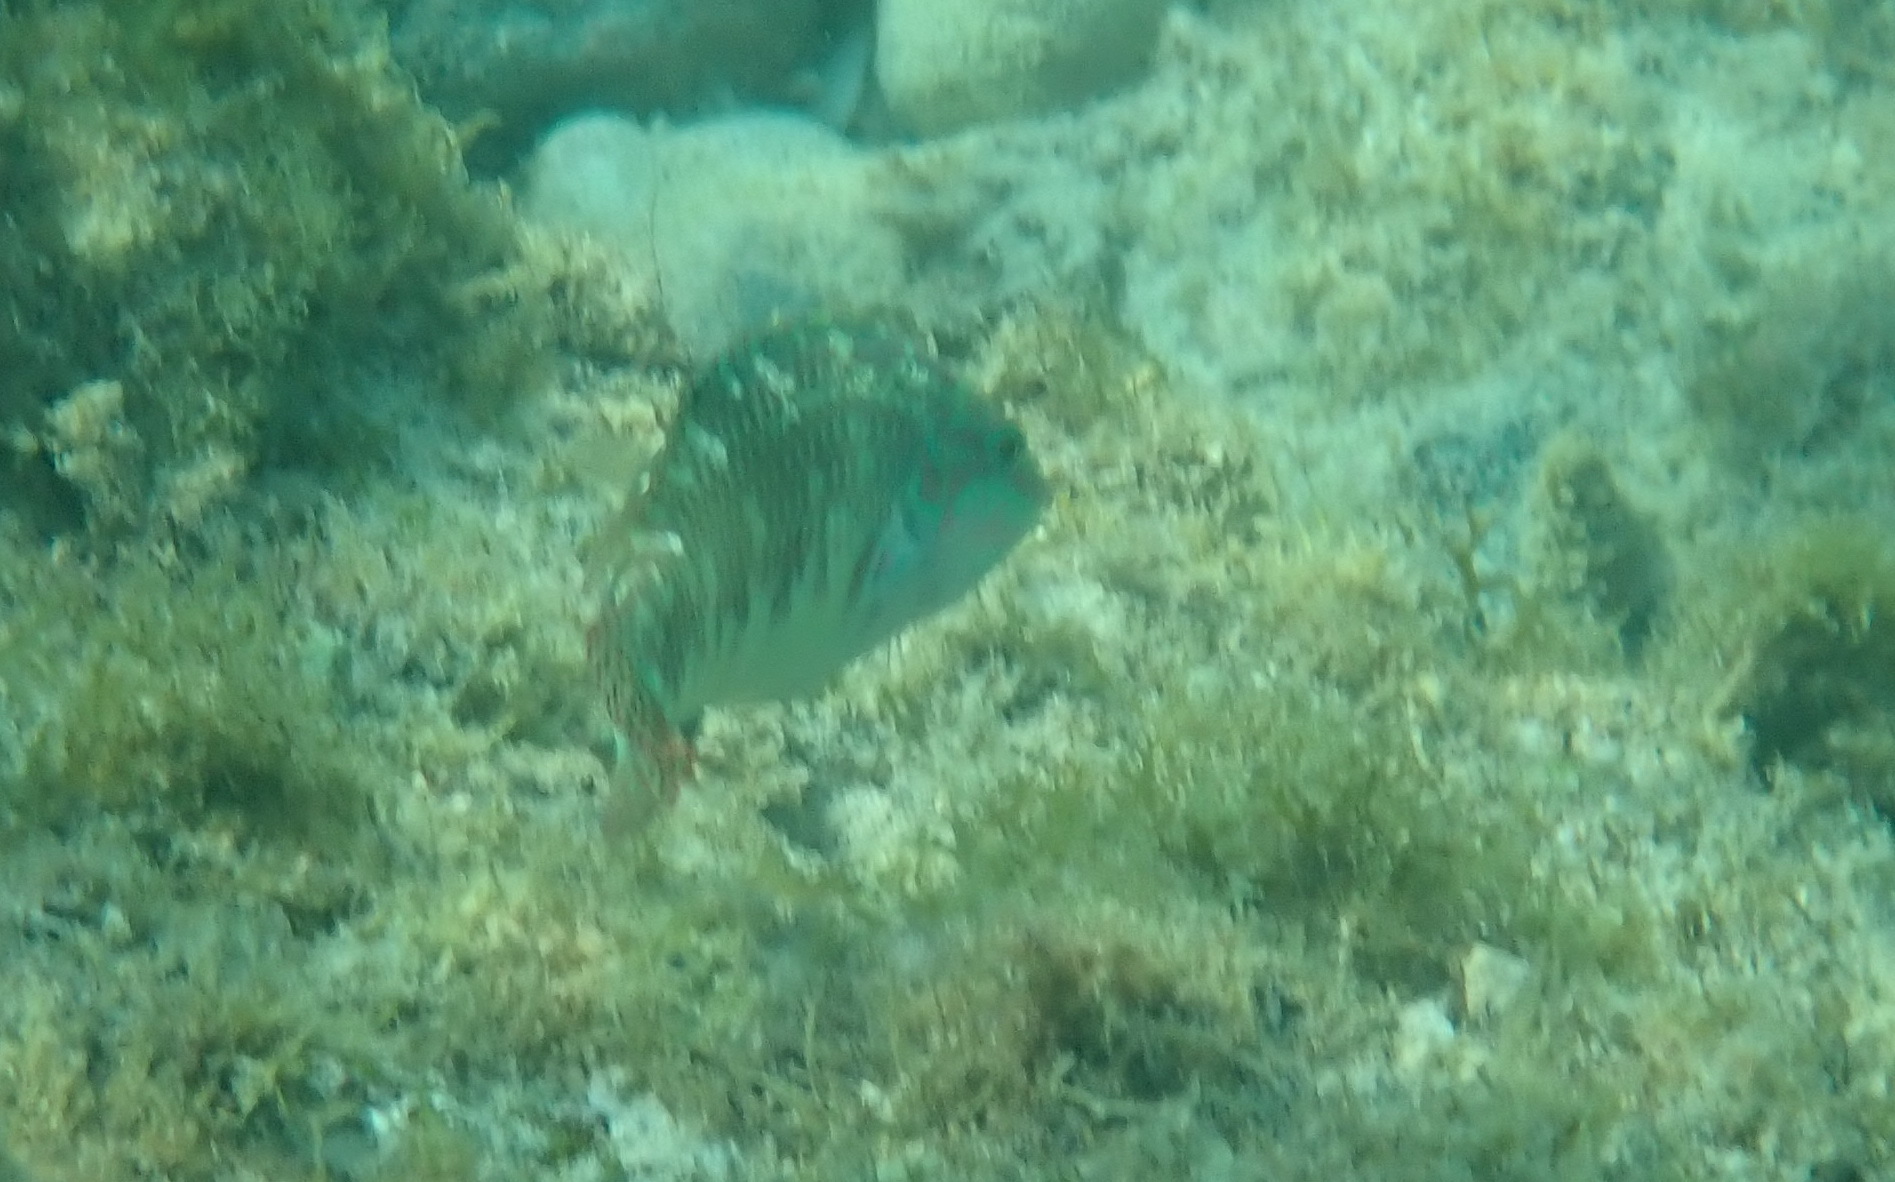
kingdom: Animalia
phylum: Chordata
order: Perciformes
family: Labridae
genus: Halichoeres
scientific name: Halichoeres margaritaceus
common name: Pink-belly wrasse
